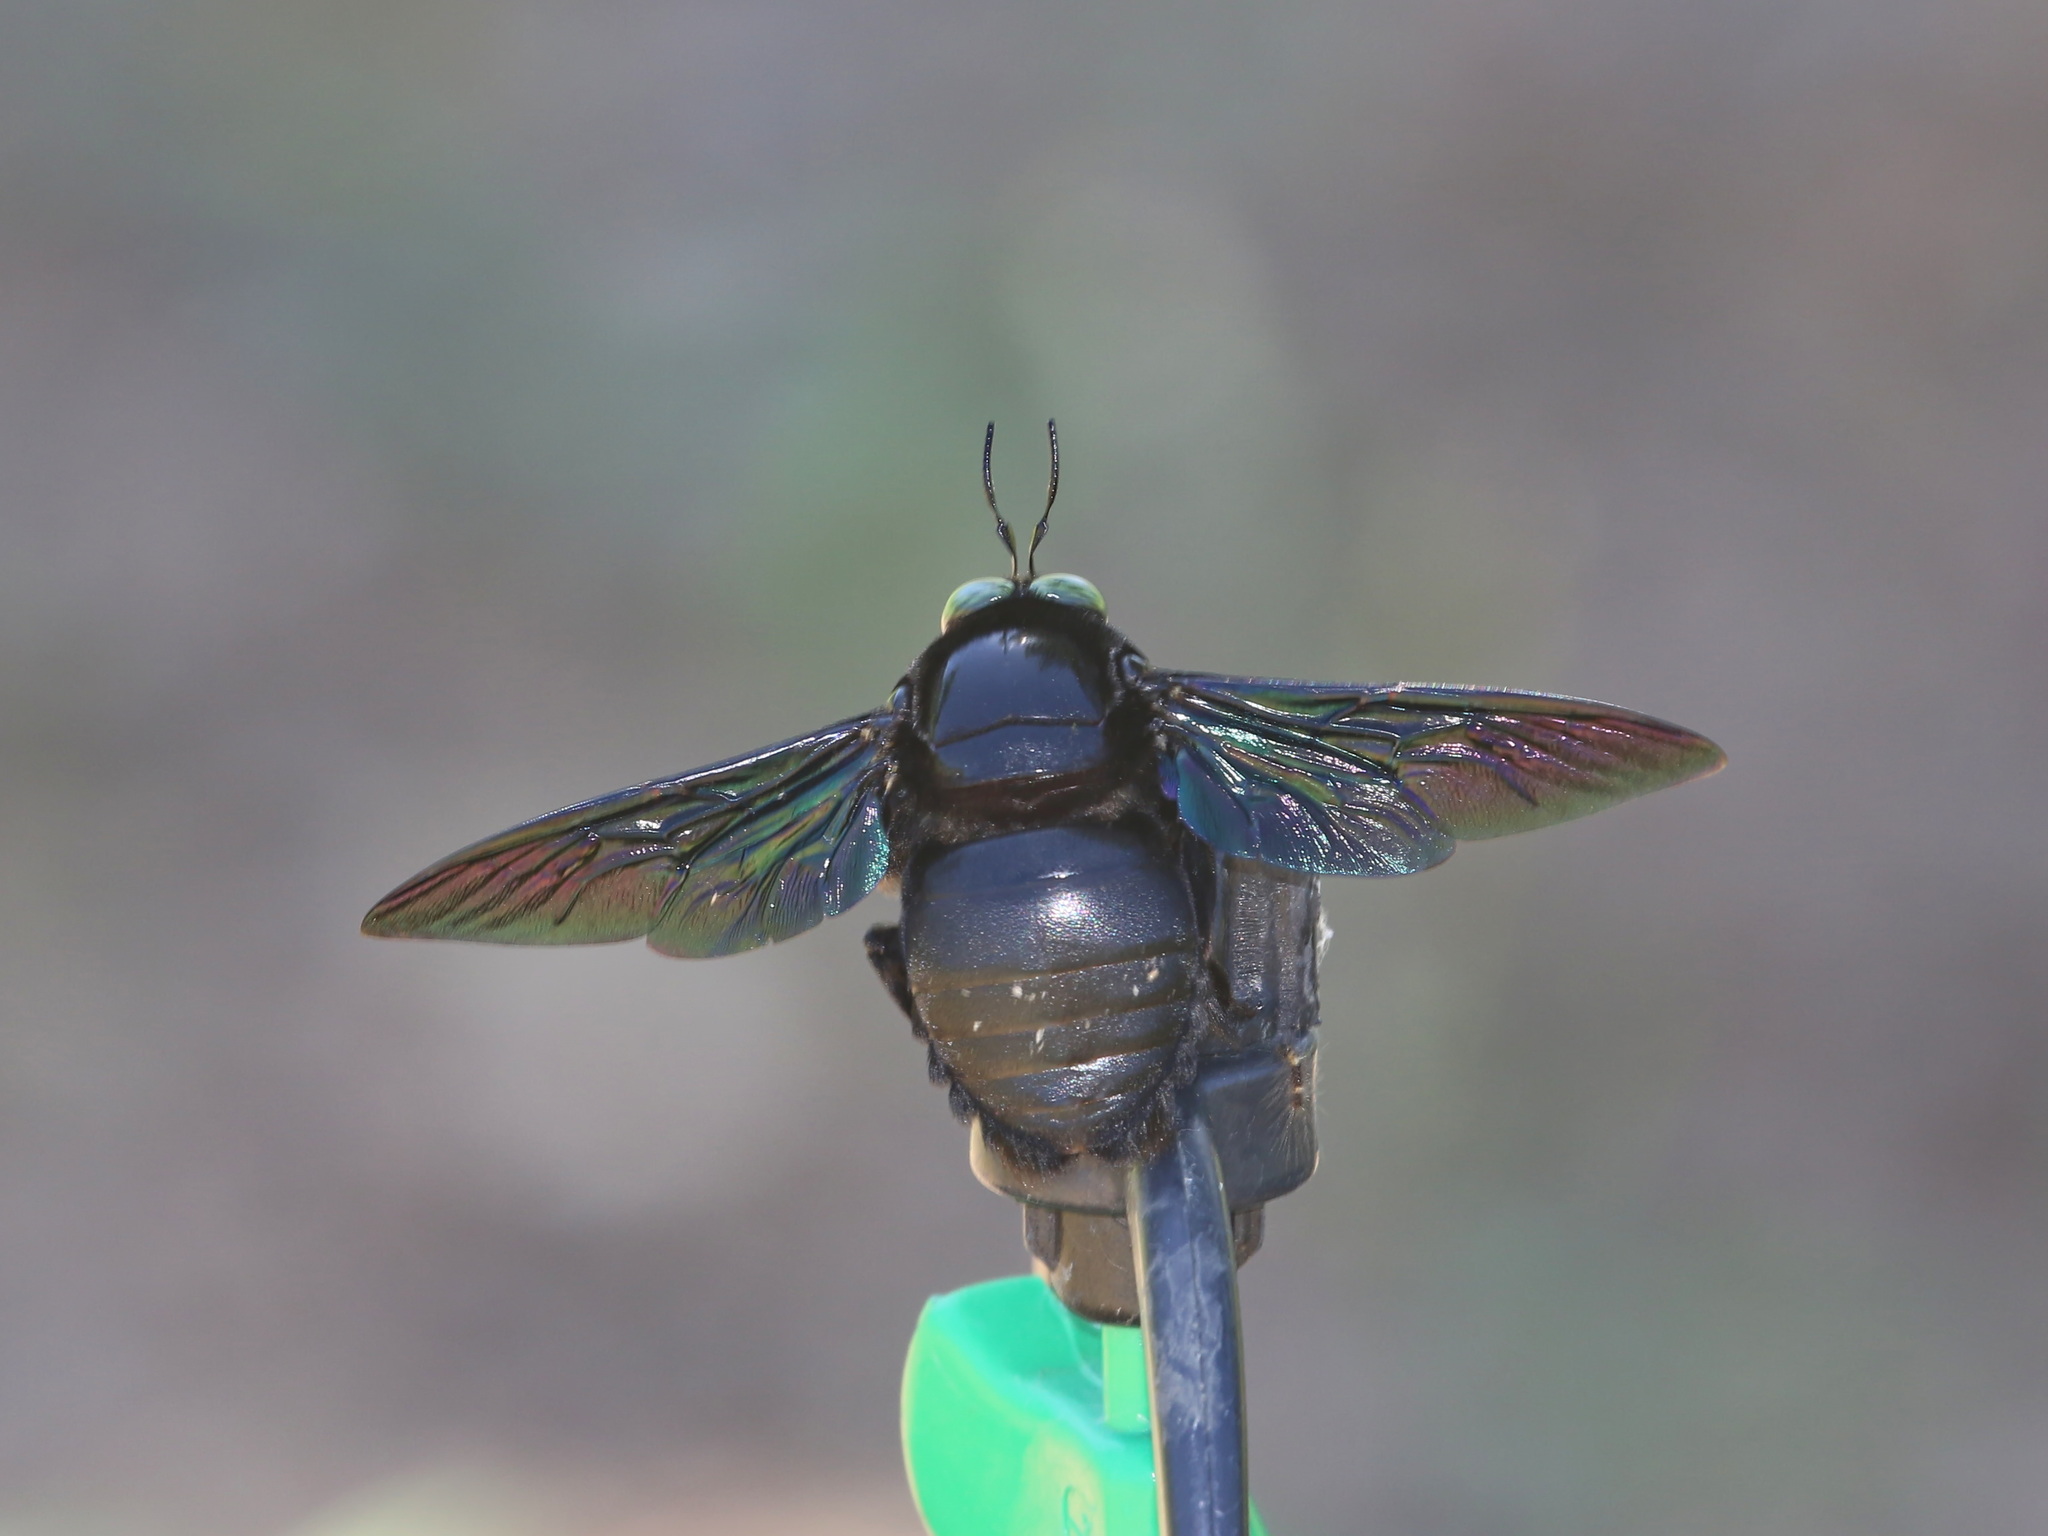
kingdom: Animalia
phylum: Arthropoda
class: Insecta
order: Hymenoptera
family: Apidae
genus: Xylocopa
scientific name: Xylocopa latipes
